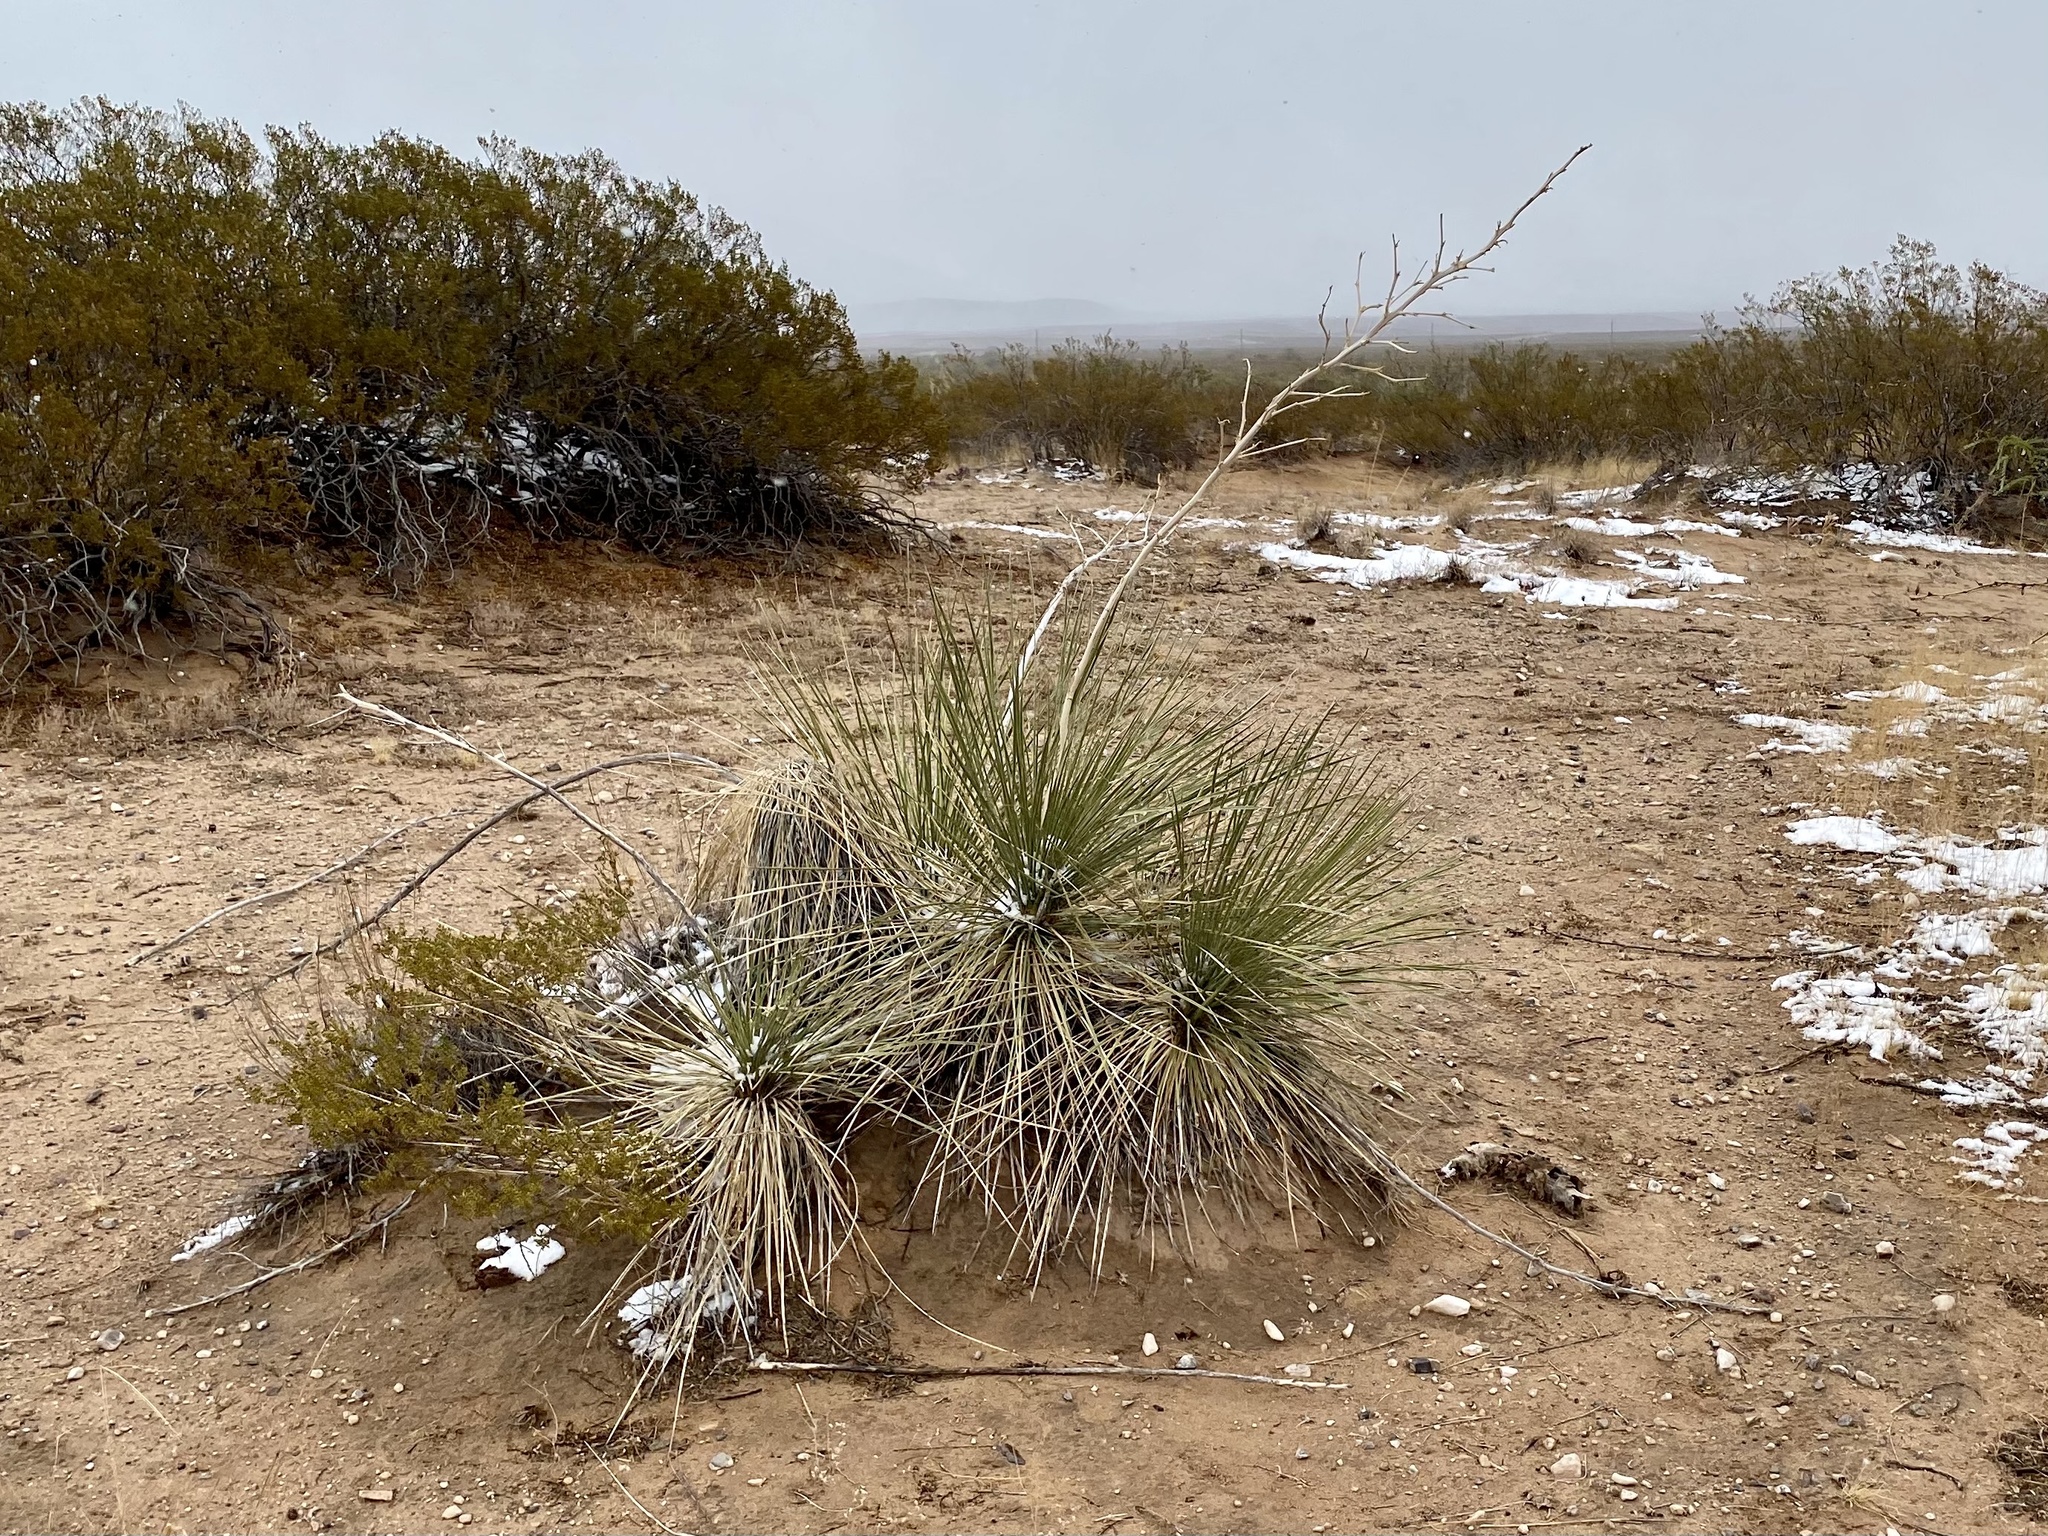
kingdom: Plantae
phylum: Tracheophyta
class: Liliopsida
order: Asparagales
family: Asparagaceae
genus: Yucca
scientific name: Yucca elata
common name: Palmella
